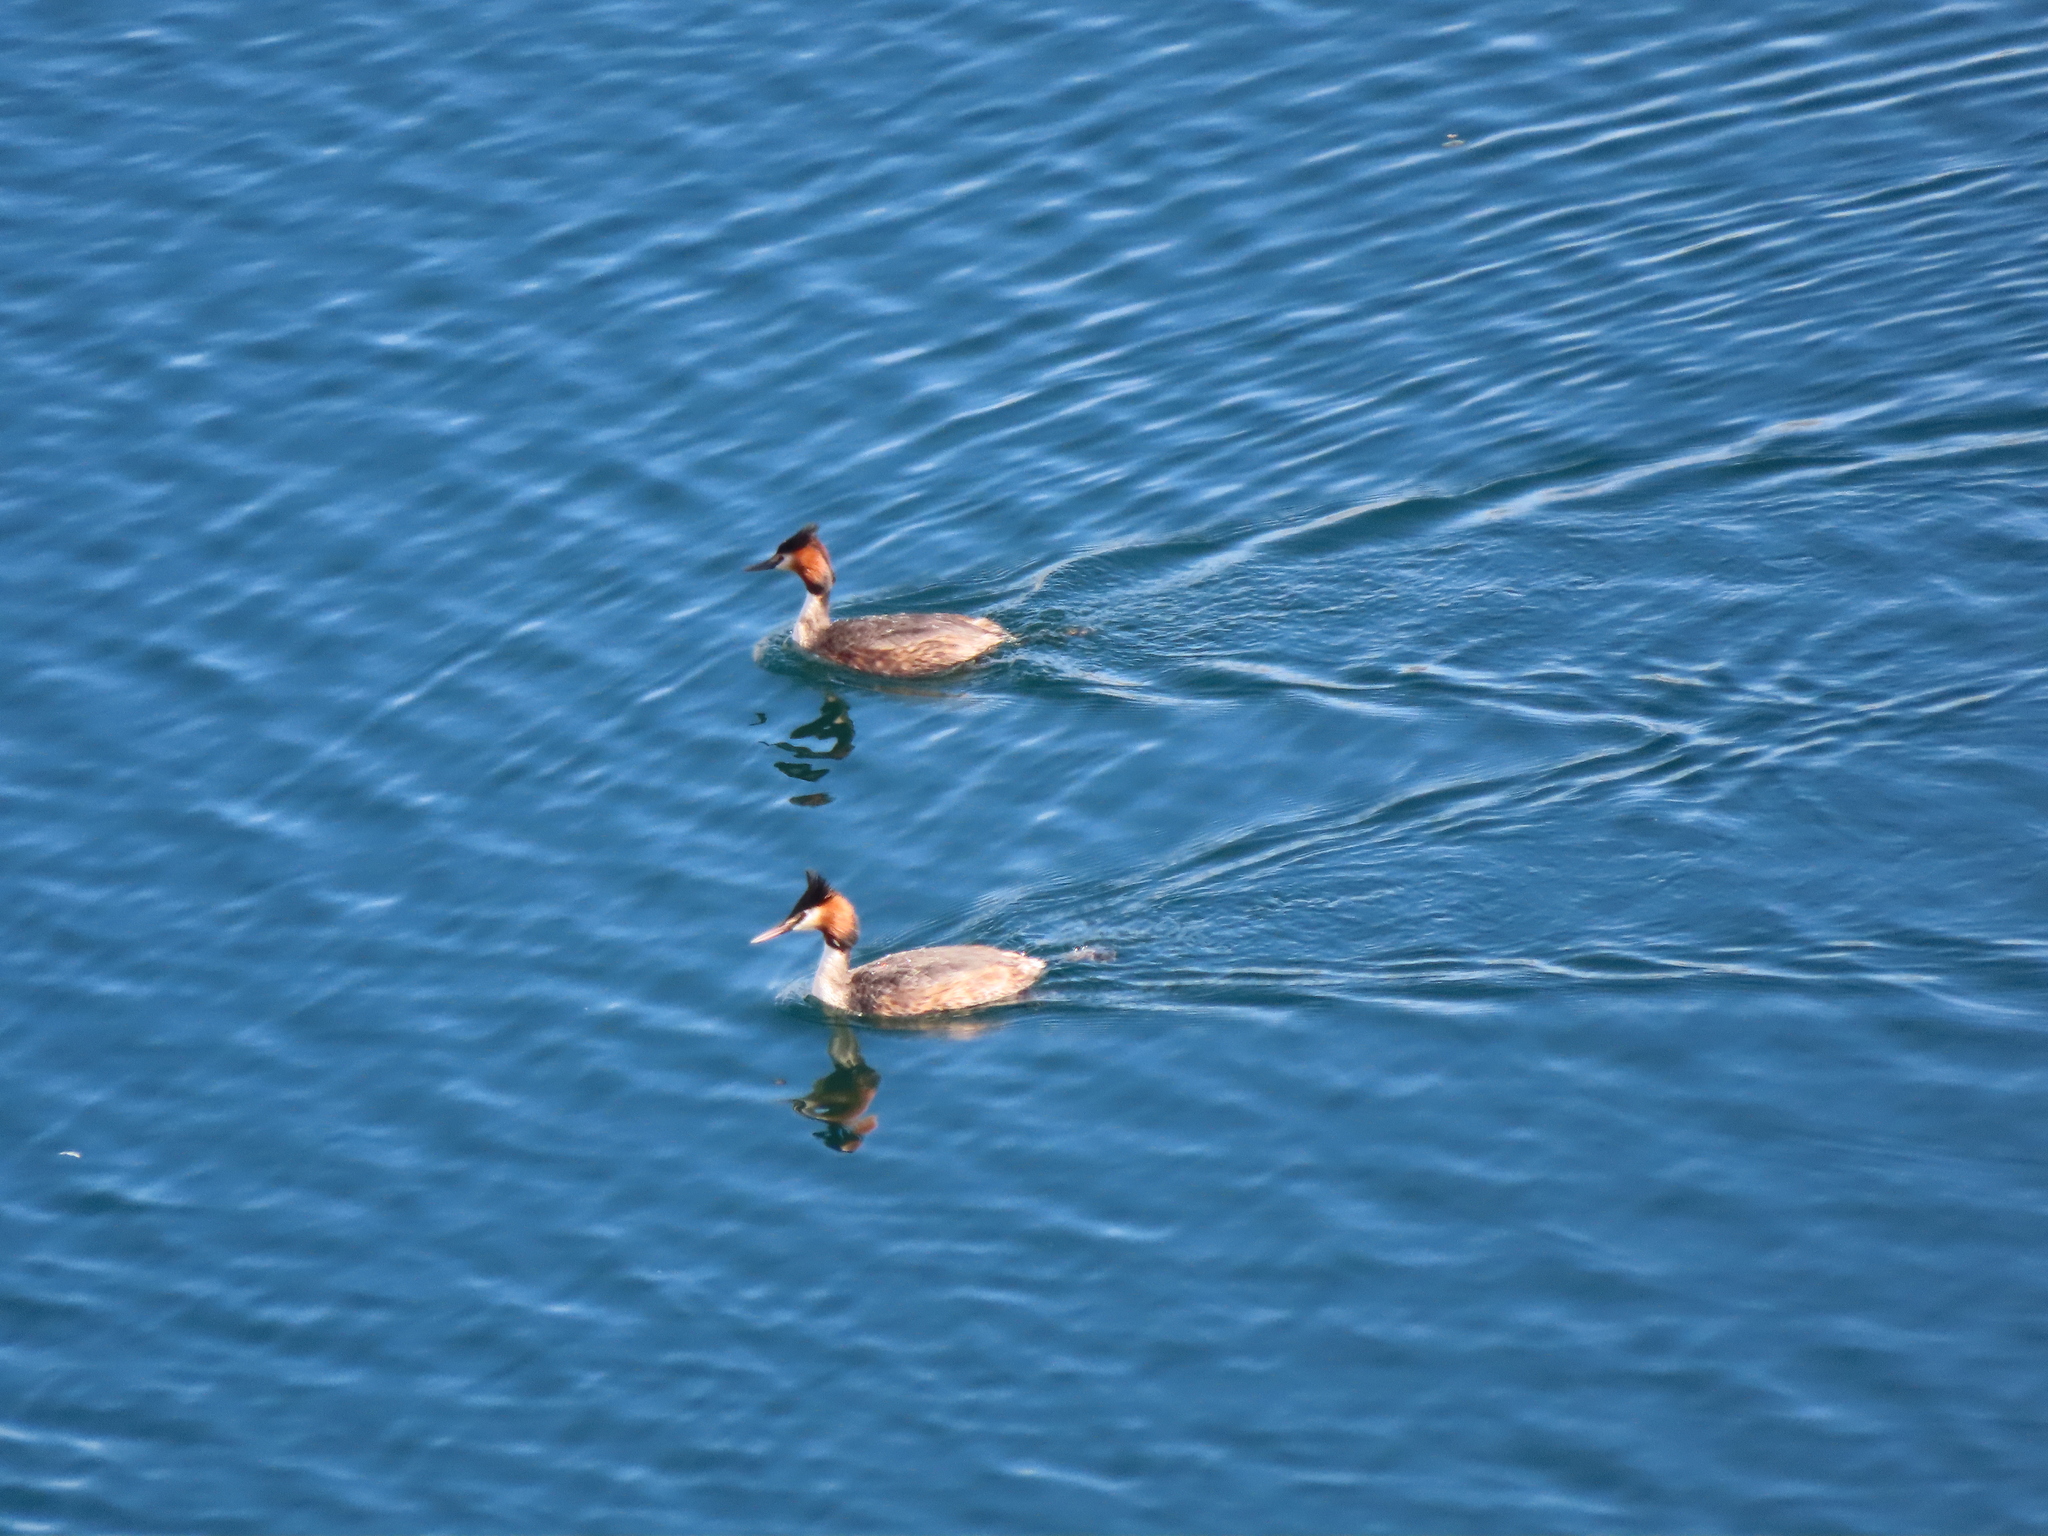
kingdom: Animalia
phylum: Chordata
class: Aves
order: Podicipediformes
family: Podicipedidae
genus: Podiceps
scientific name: Podiceps cristatus
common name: Great crested grebe
